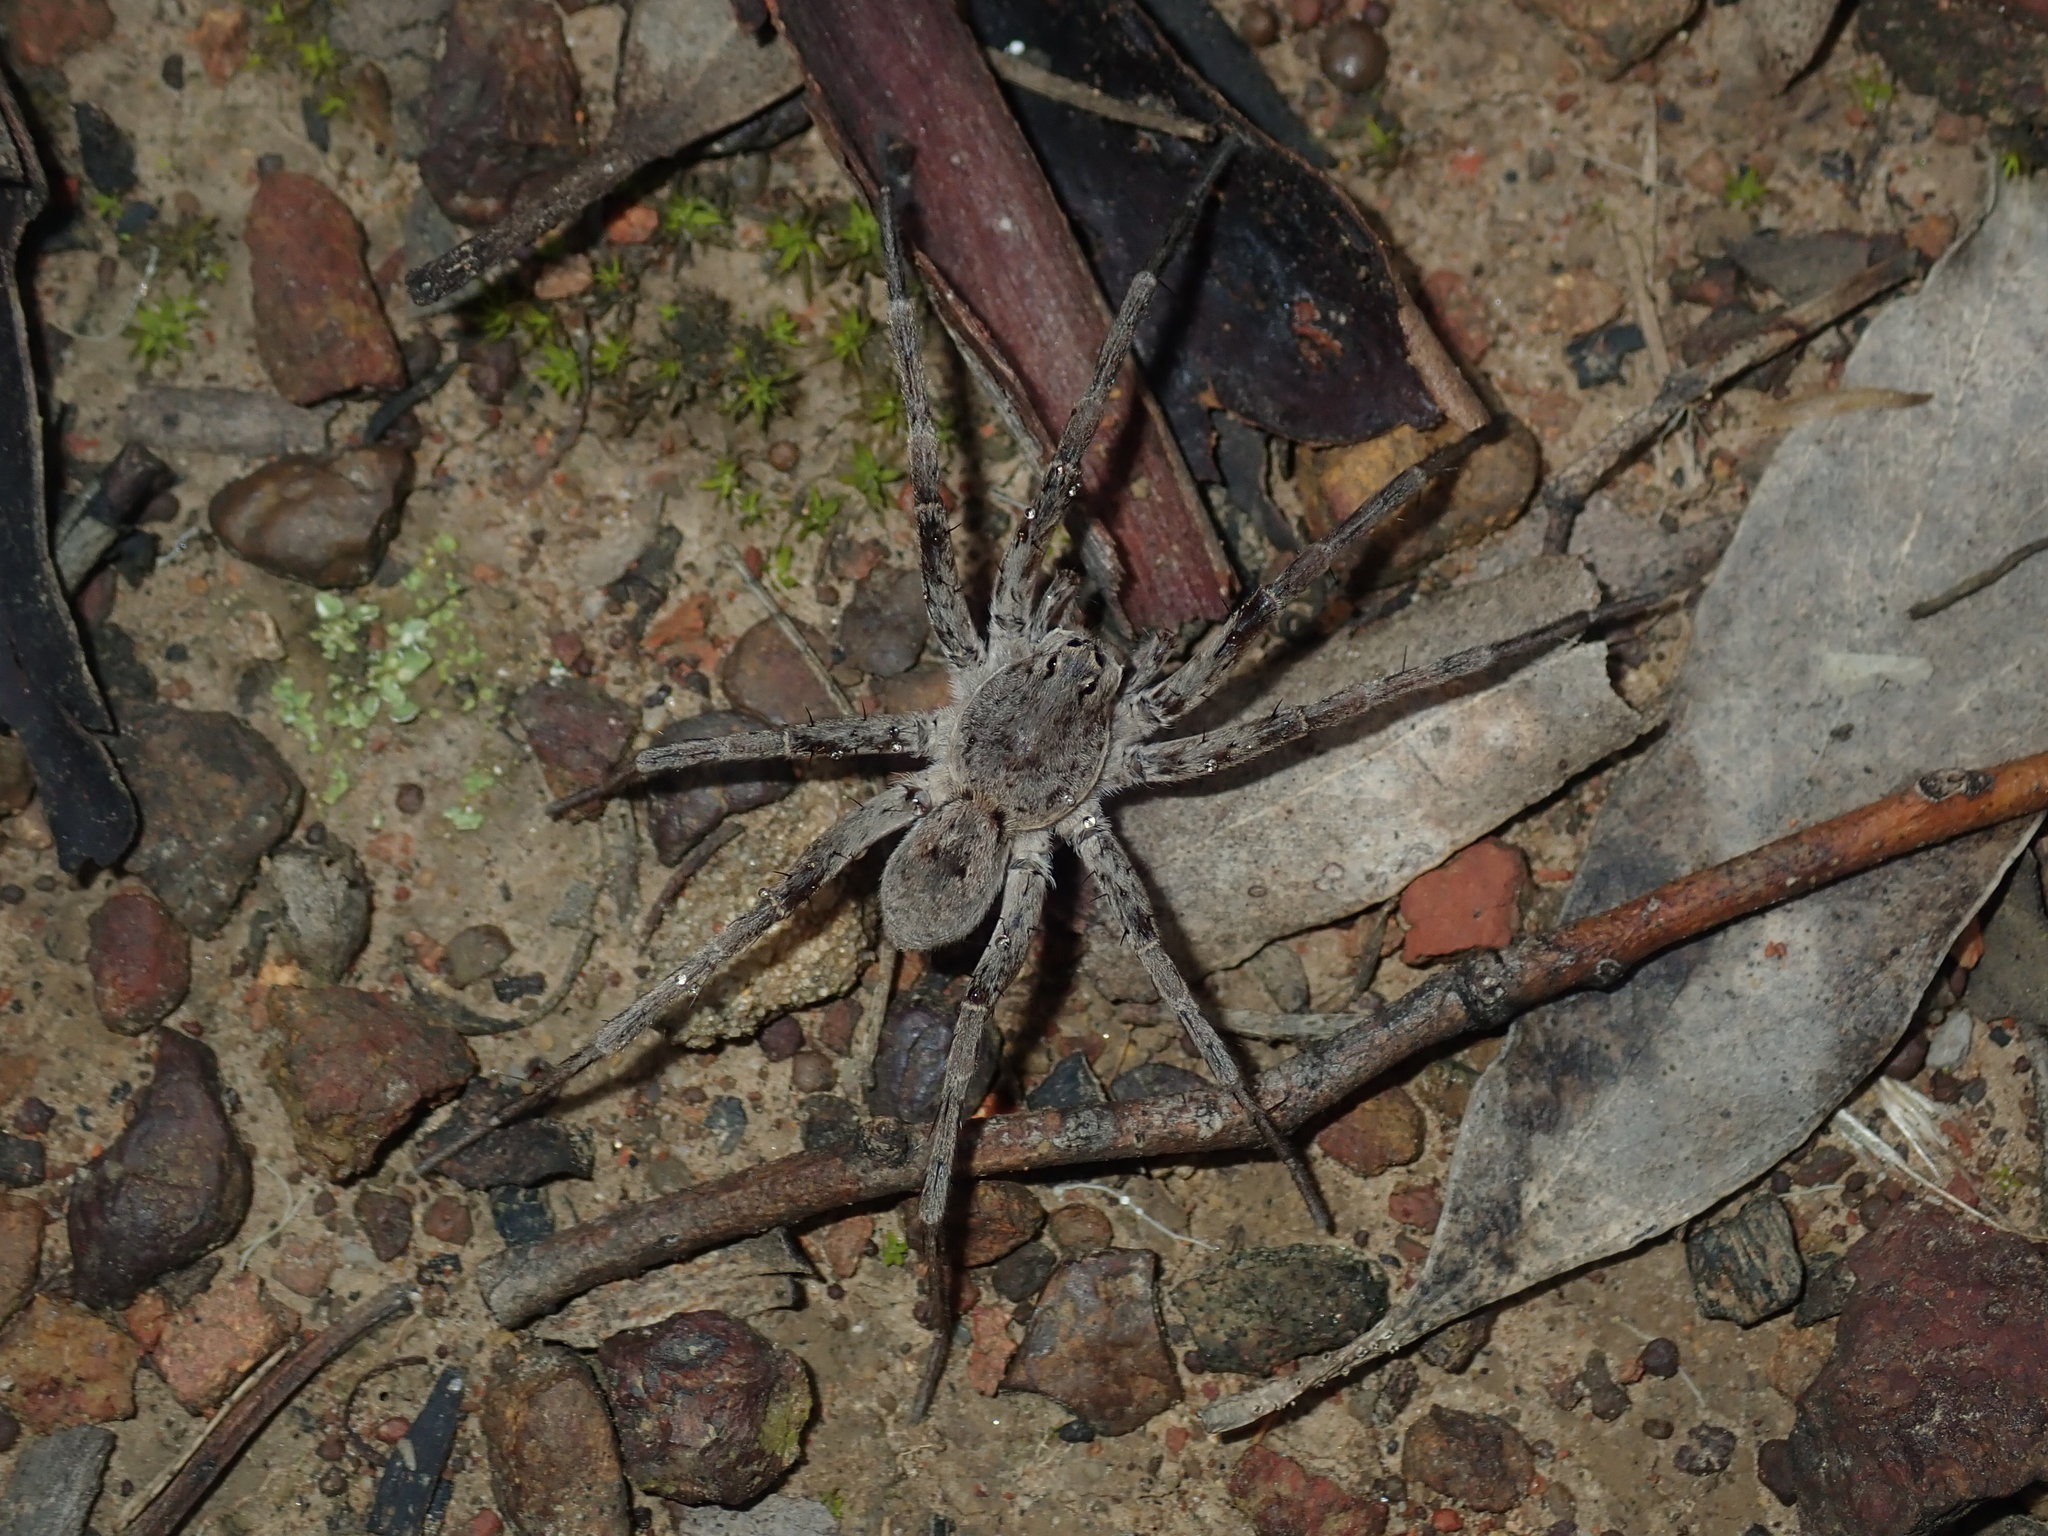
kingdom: Animalia
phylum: Arthropoda
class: Arachnida
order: Araneae
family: Lycosidae
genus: Portacosa
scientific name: Portacosa cinerea
